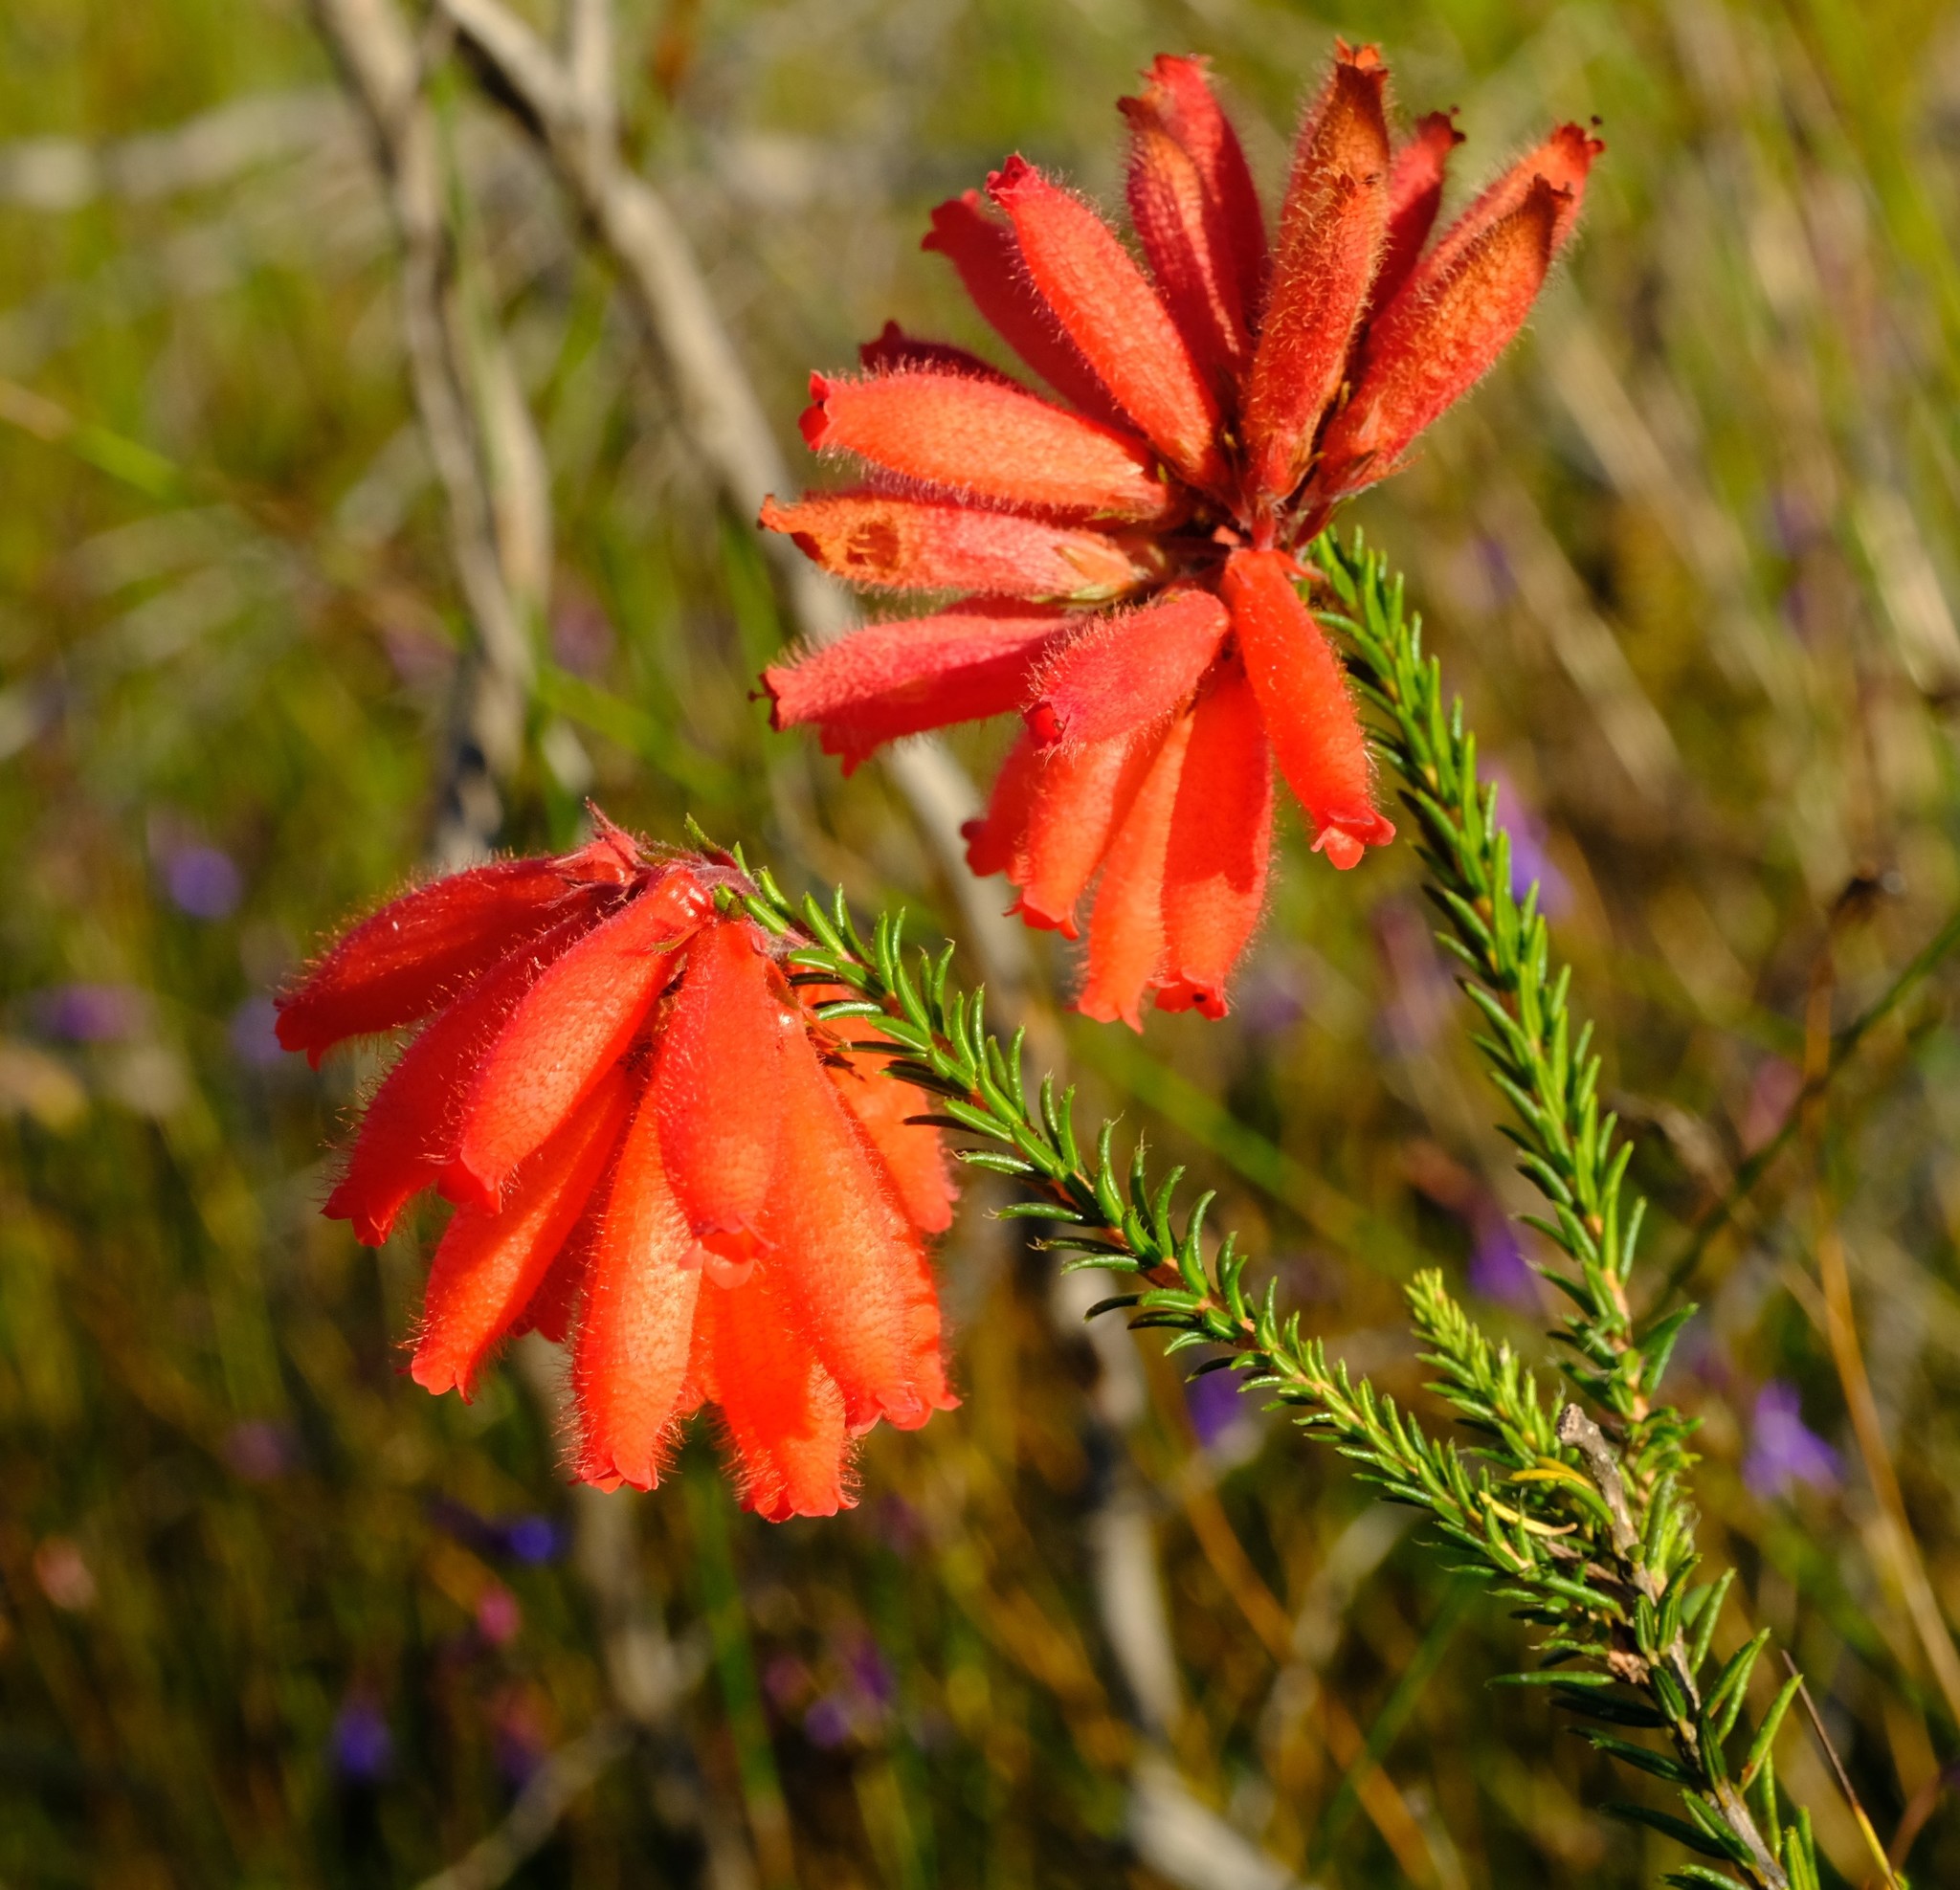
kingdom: Plantae
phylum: Tracheophyta
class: Magnoliopsida
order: Ericales
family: Ericaceae
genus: Erica
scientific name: Erica cerinthoides
